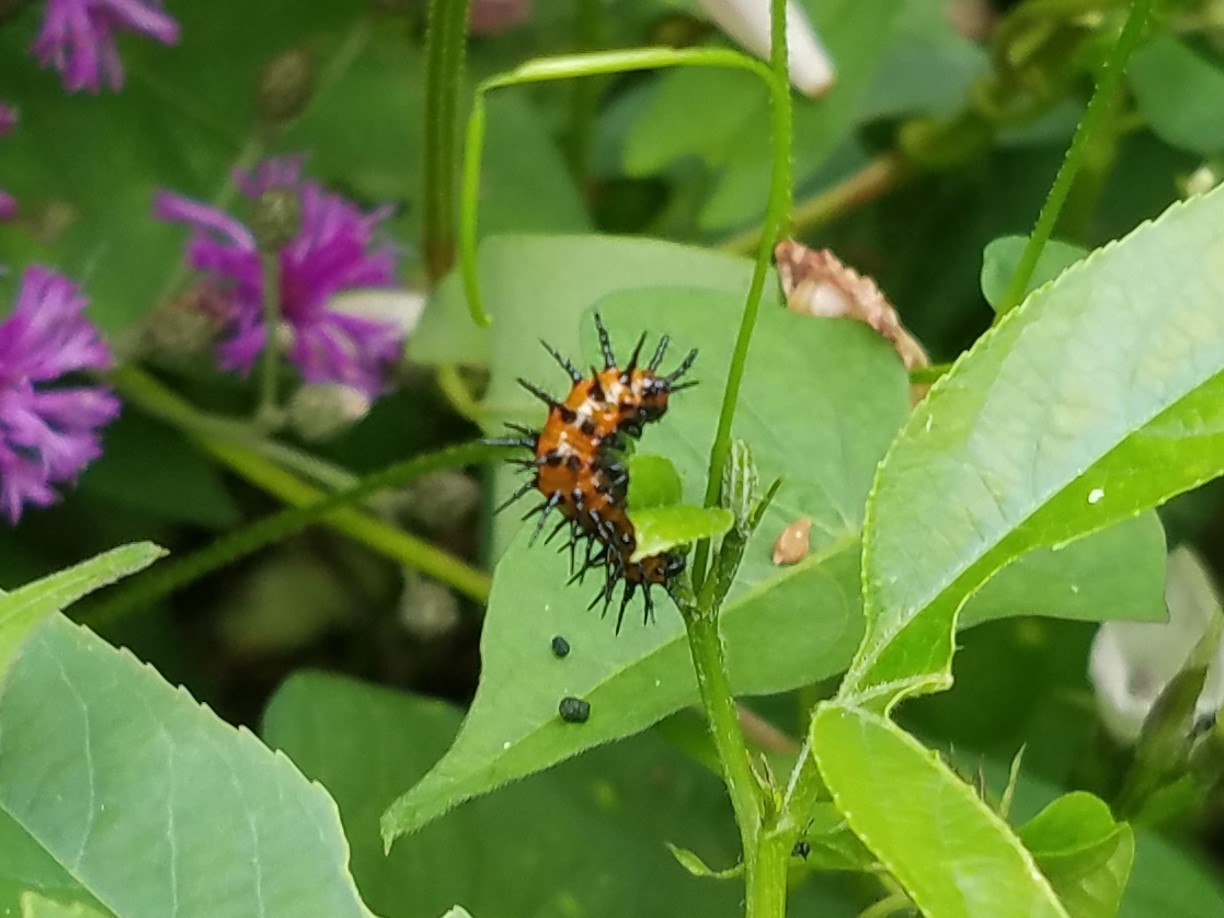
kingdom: Animalia
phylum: Arthropoda
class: Insecta
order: Lepidoptera
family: Nymphalidae
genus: Dione
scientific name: Dione vanillae
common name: Gulf fritillary
